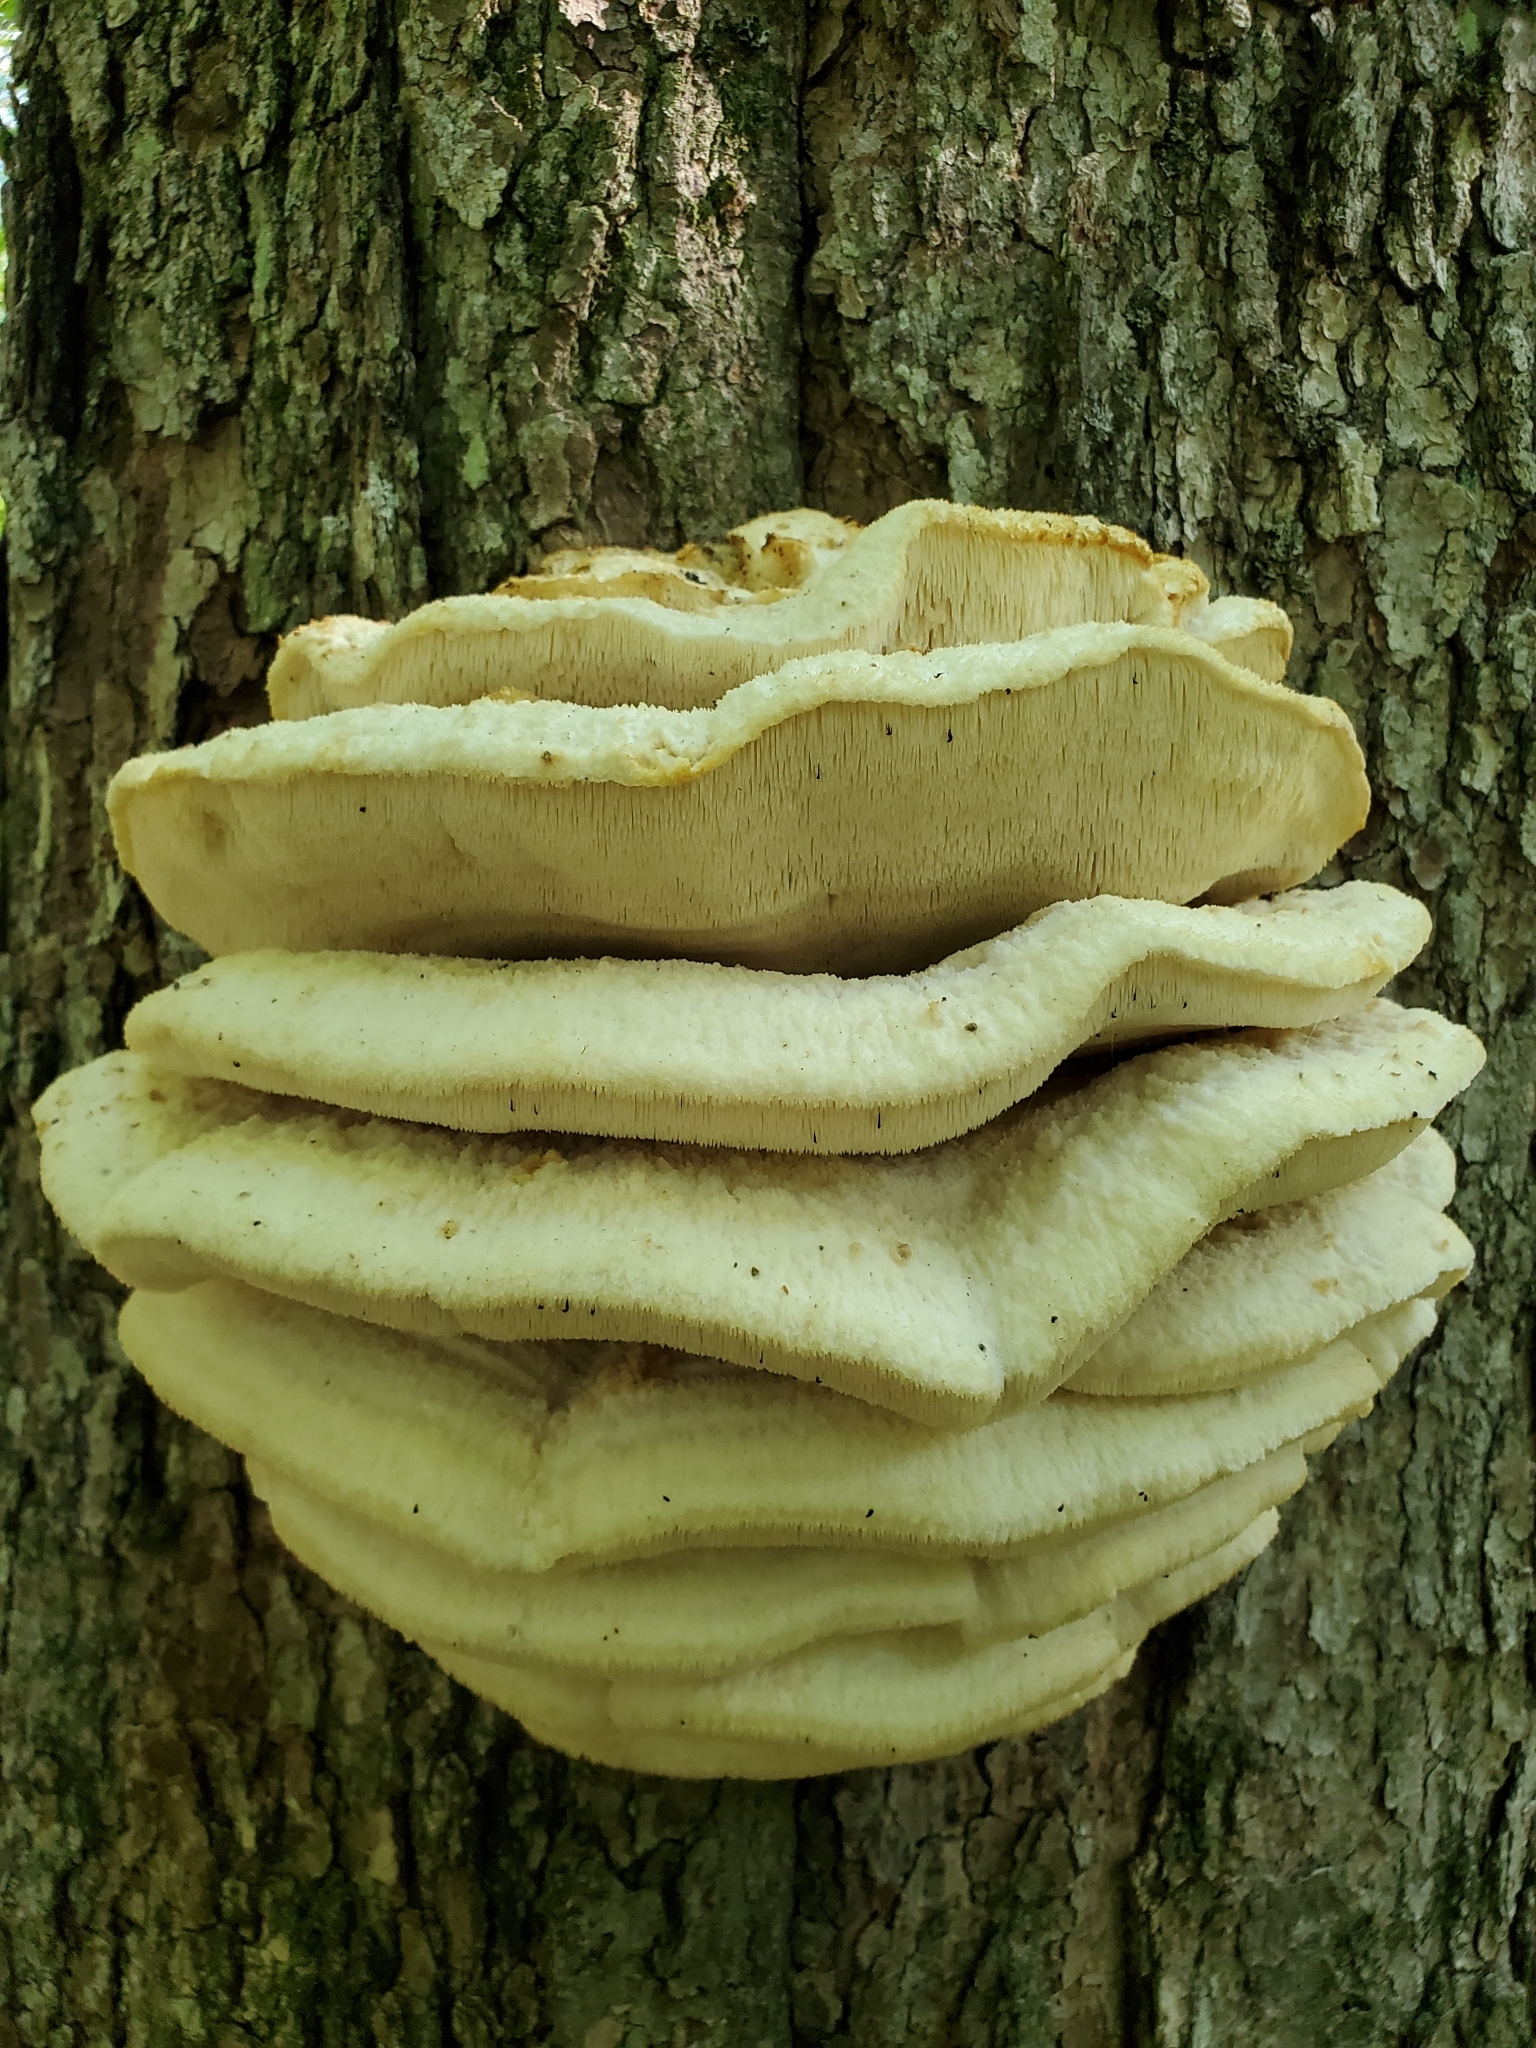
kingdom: Fungi
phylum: Basidiomycota
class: Agaricomycetes
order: Polyporales
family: Meruliaceae
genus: Climacodon
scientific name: Climacodon septentrionalis
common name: Northern tooth
